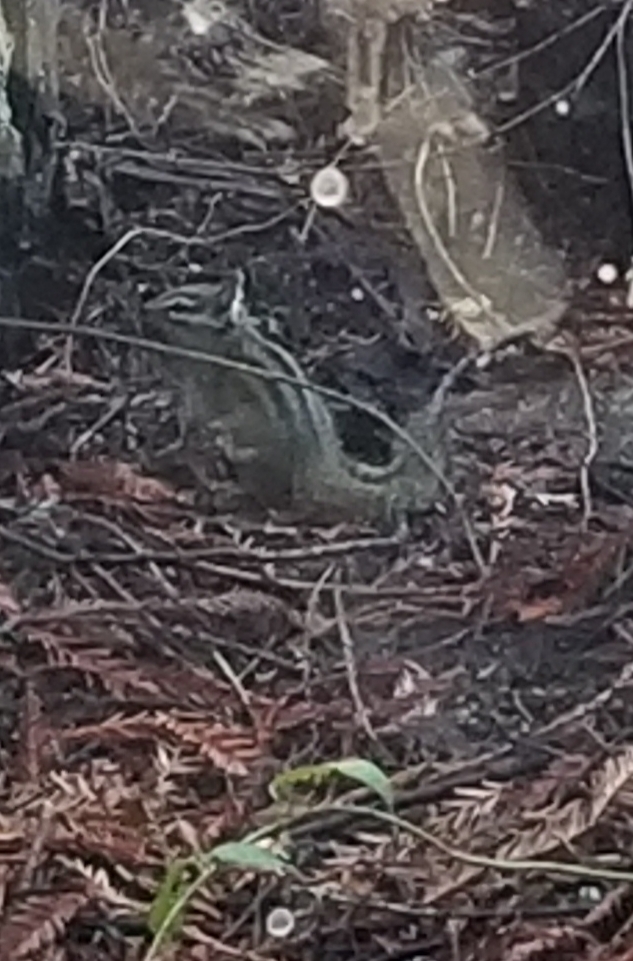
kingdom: Animalia
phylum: Chordata
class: Mammalia
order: Rodentia
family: Sciuridae
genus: Tamias
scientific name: Tamias merriami
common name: Merriam's chipmunk
